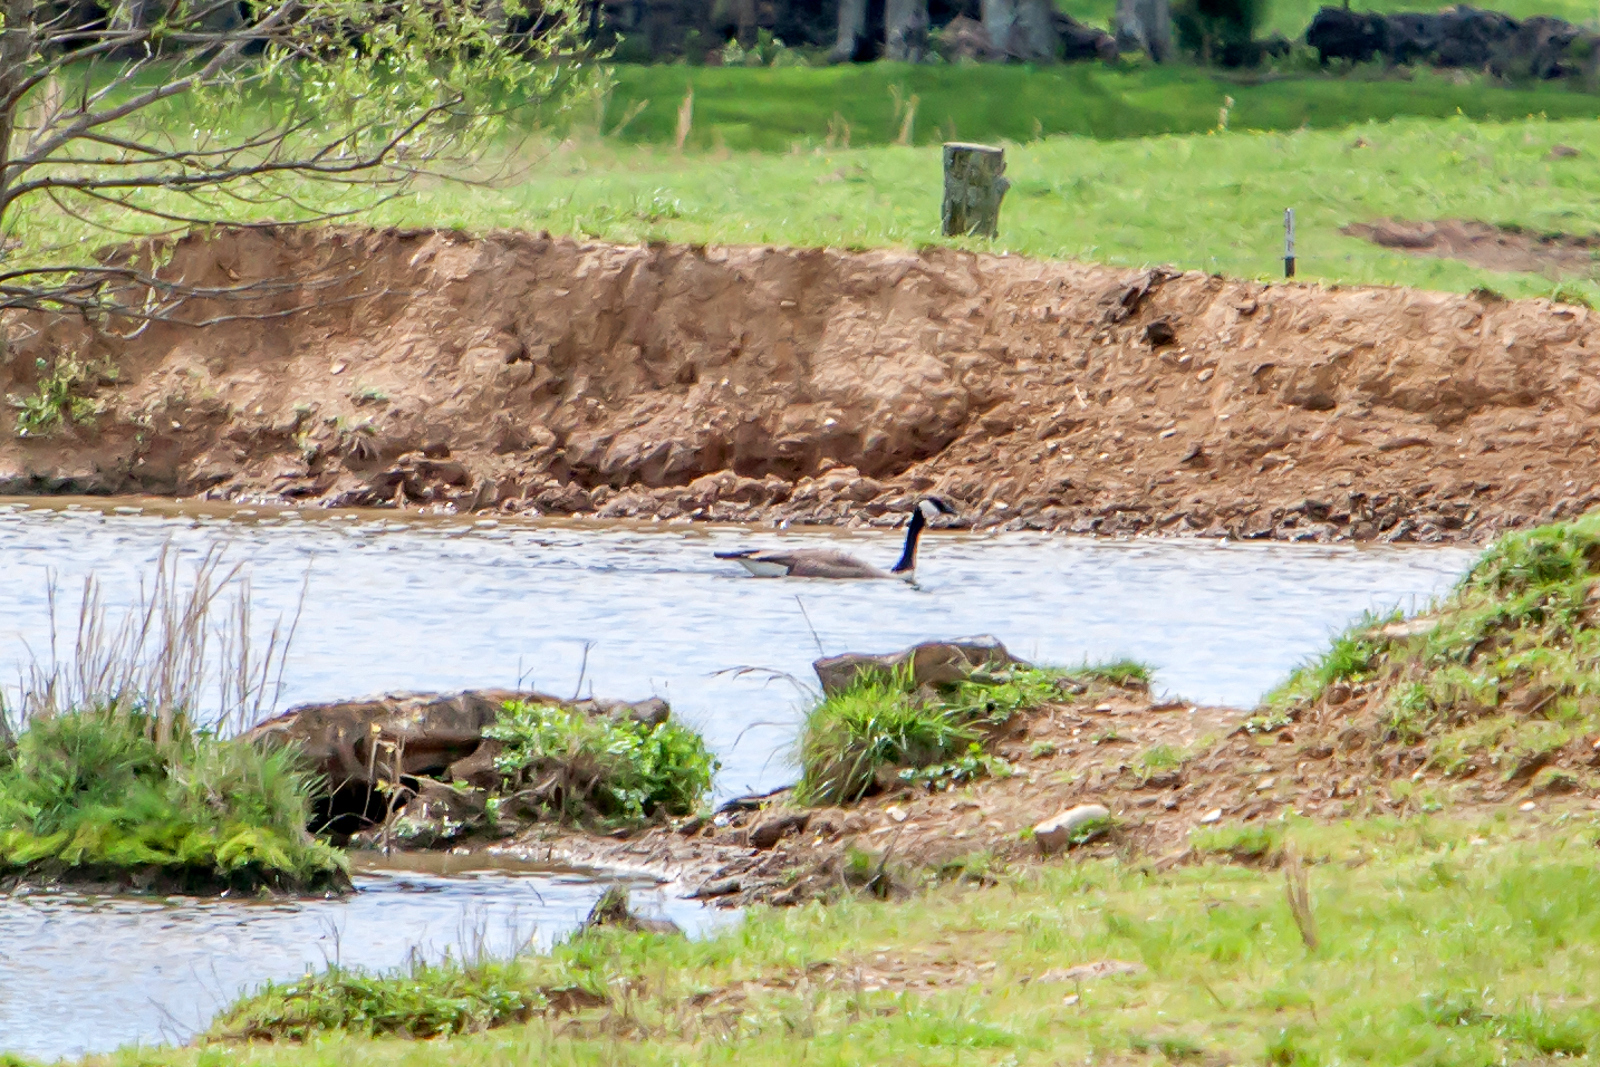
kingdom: Animalia
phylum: Chordata
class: Aves
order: Anseriformes
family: Anatidae
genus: Branta
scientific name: Branta canadensis
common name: Canada goose
